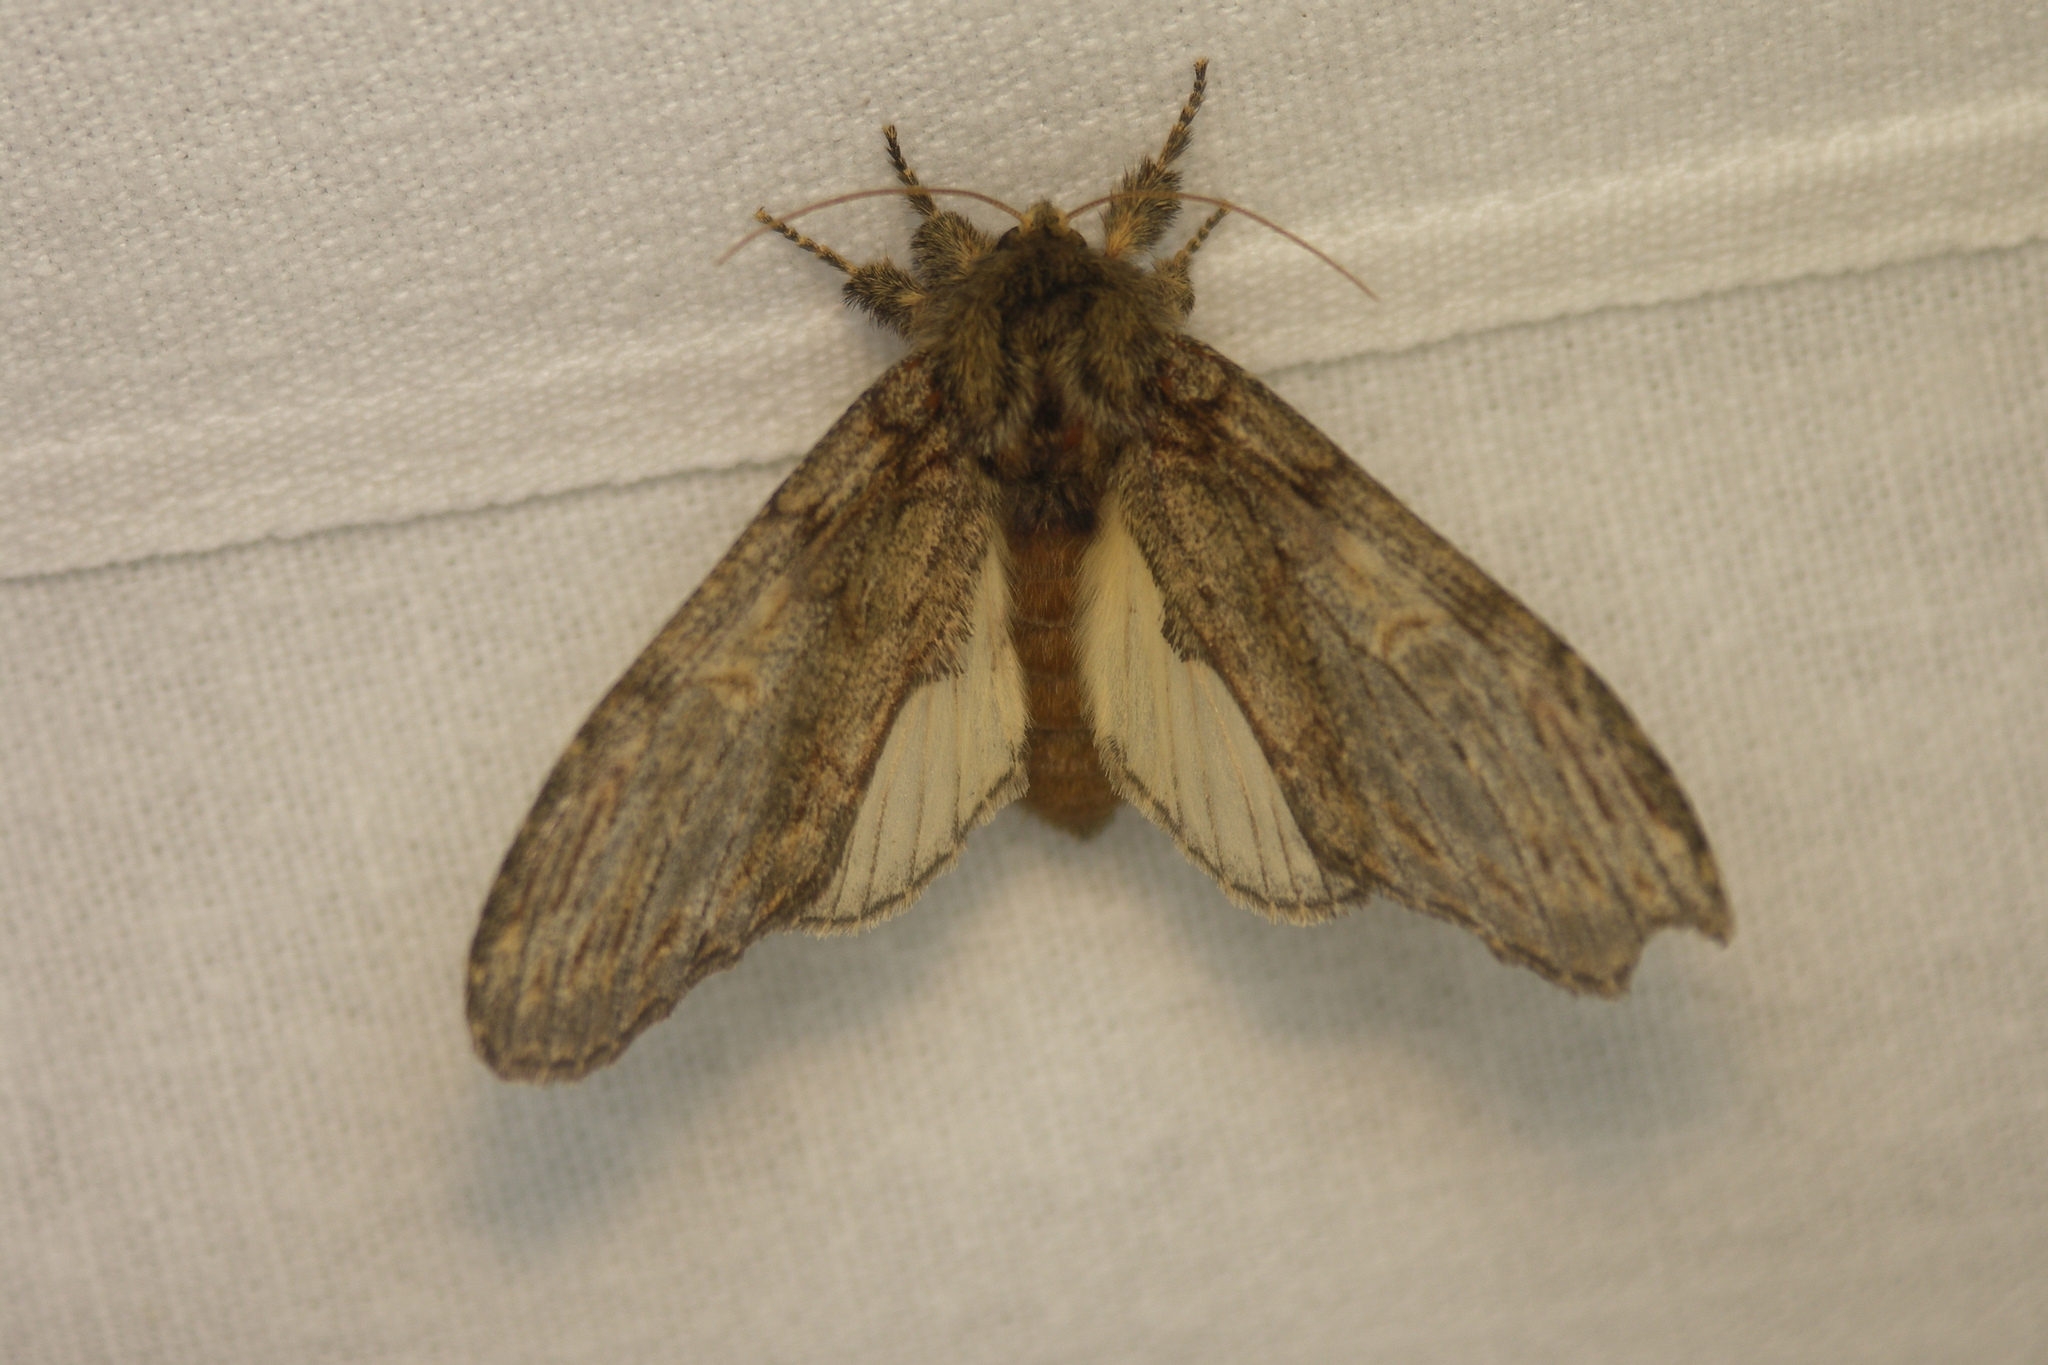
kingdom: Animalia
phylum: Arthropoda
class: Insecta
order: Lepidoptera
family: Notodontidae
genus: Peridea
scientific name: Peridea anceps
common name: Great prominent
